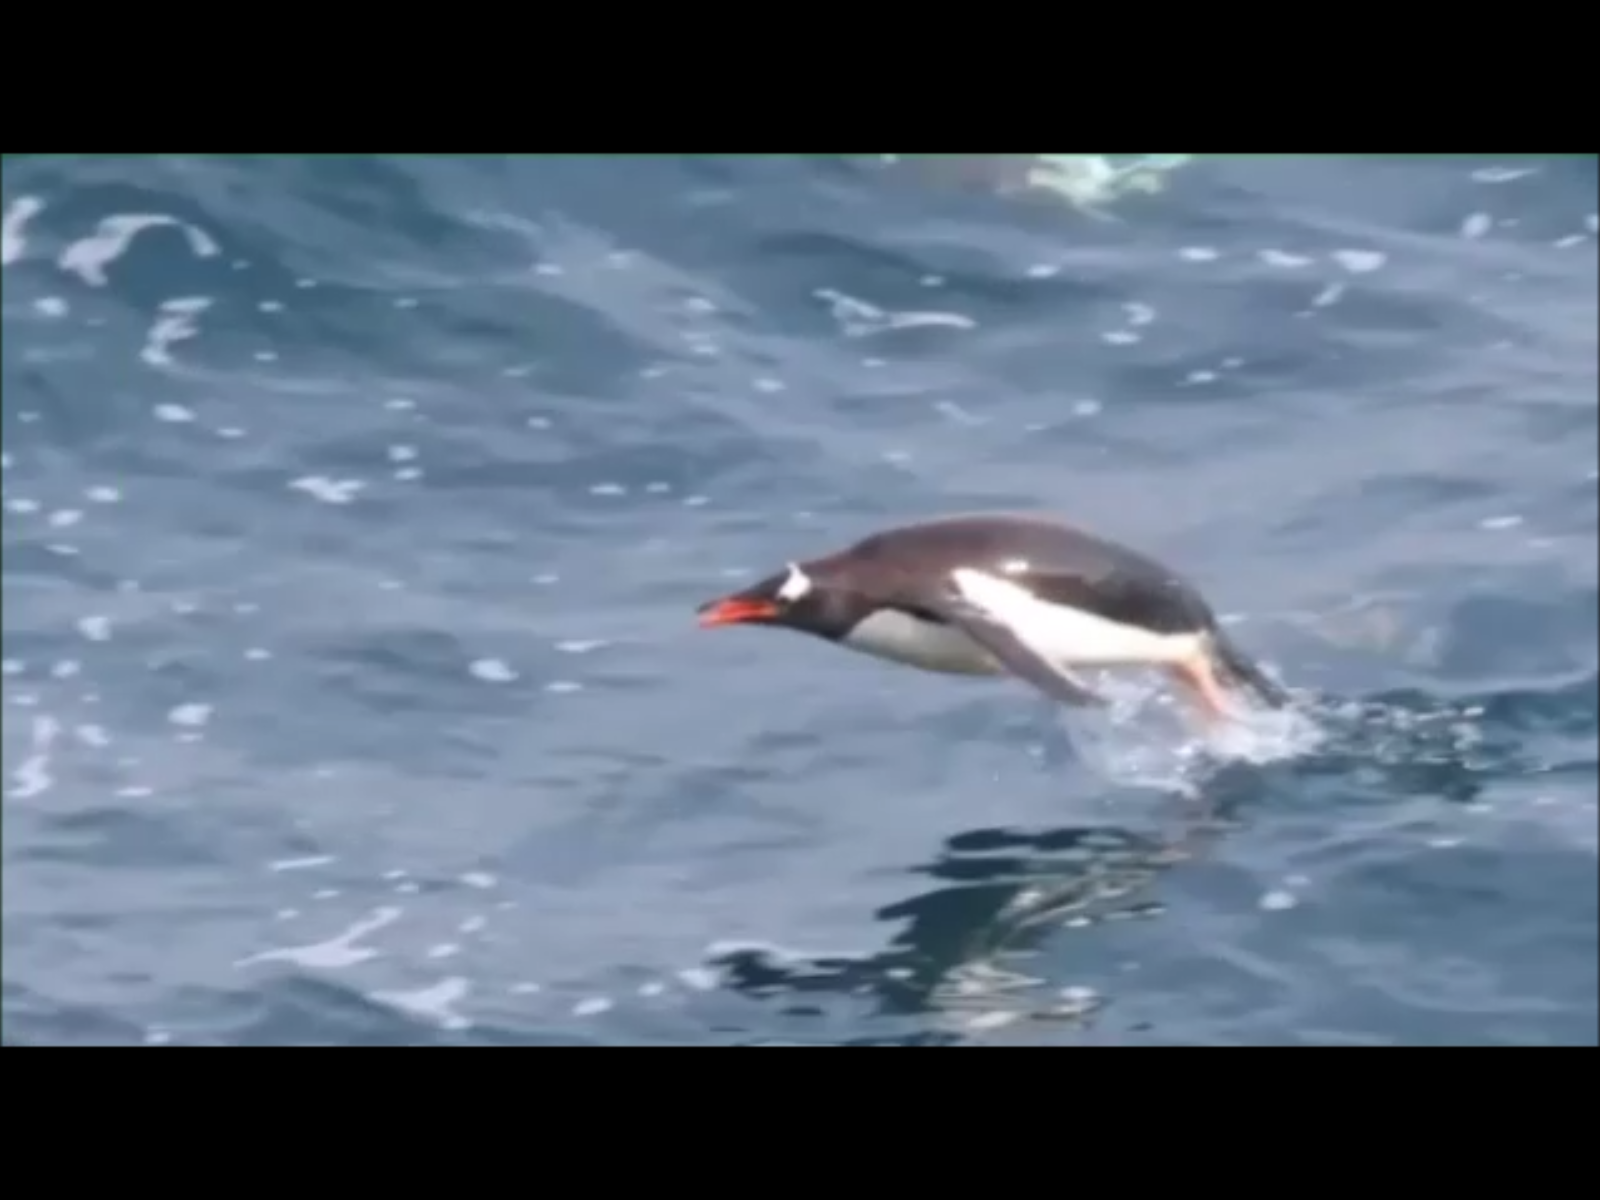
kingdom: Animalia
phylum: Chordata
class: Aves
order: Sphenisciformes
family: Spheniscidae
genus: Pygoscelis
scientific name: Pygoscelis papua
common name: Gentoo penguin
